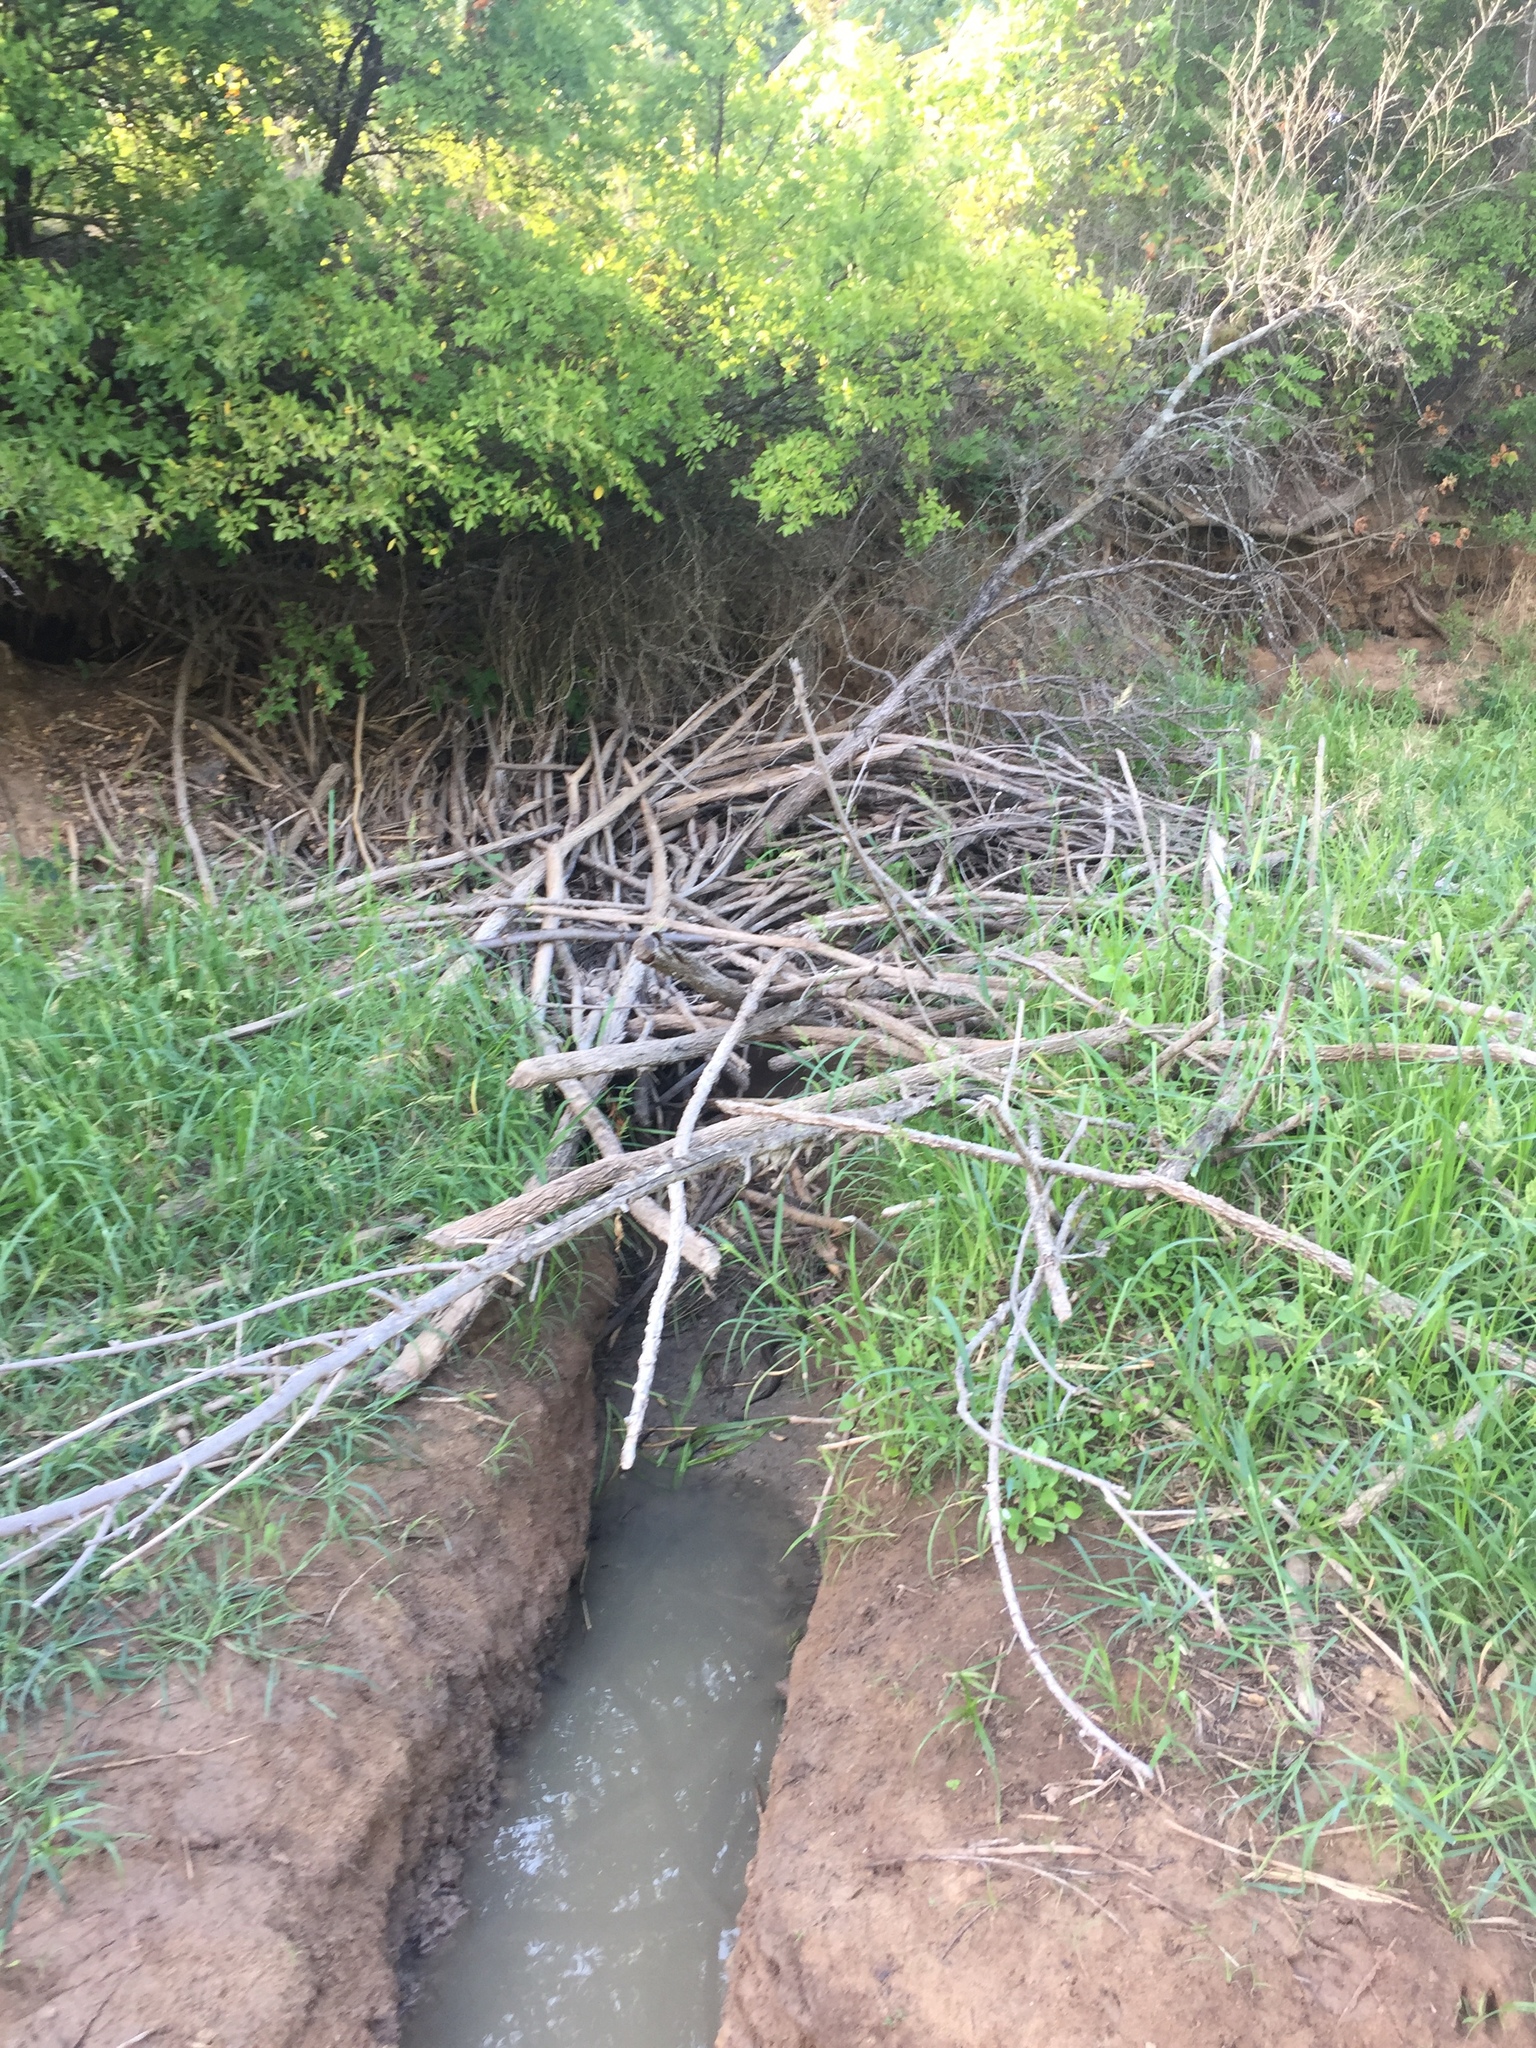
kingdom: Animalia
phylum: Chordata
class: Mammalia
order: Rodentia
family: Castoridae
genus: Castor
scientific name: Castor canadensis
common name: American beaver
